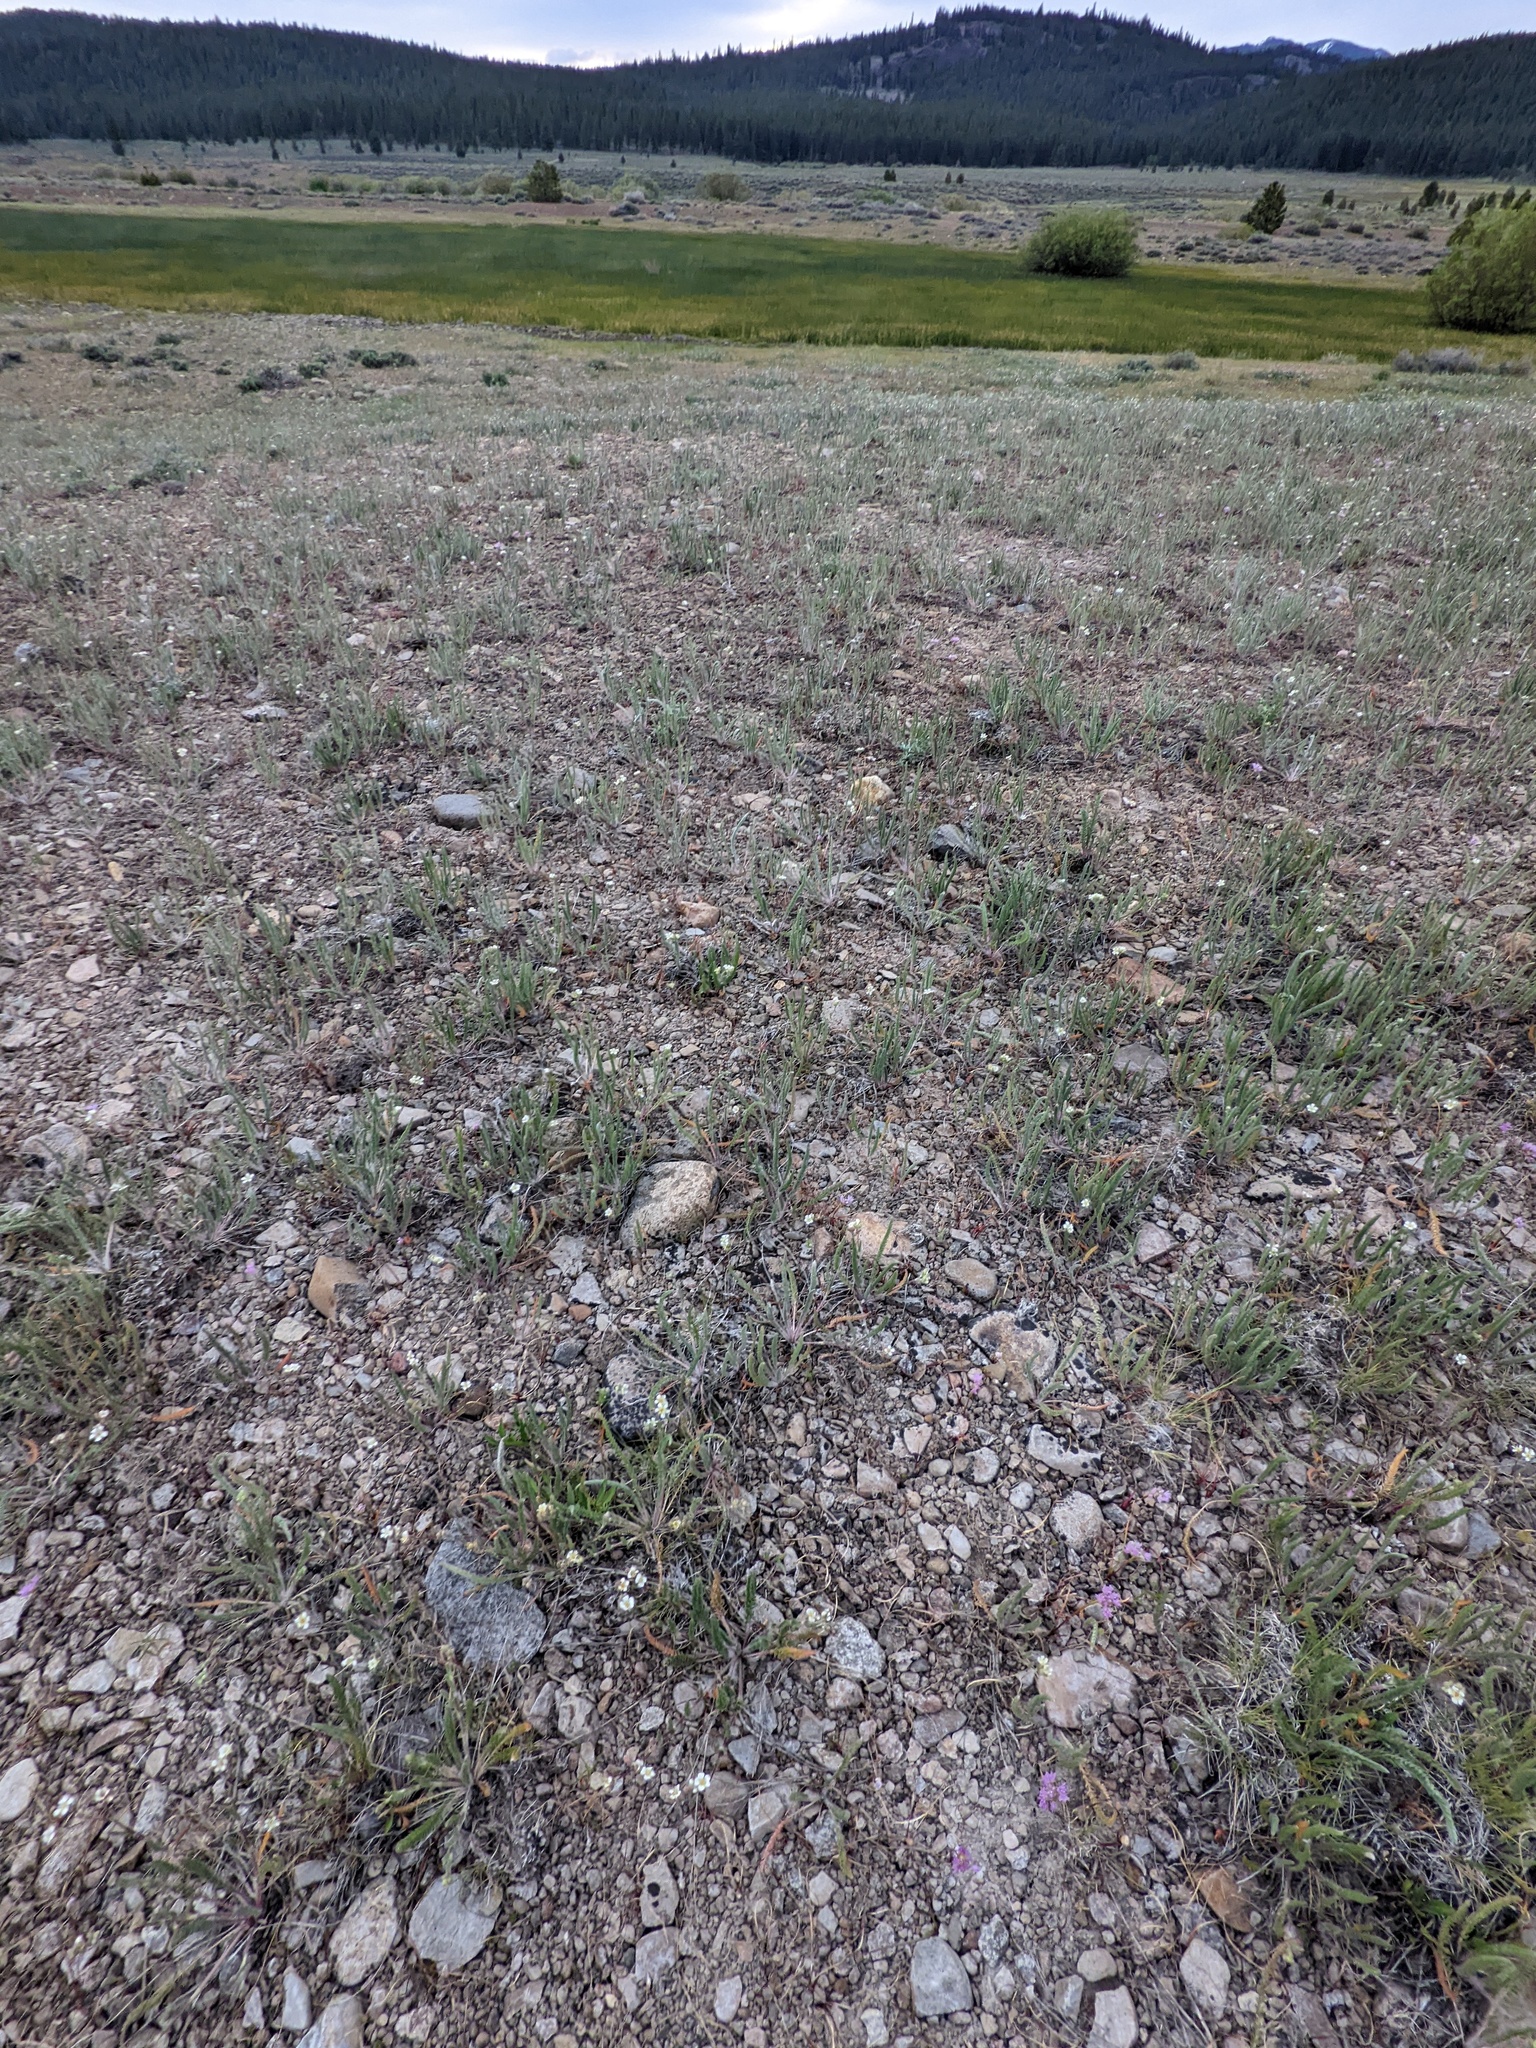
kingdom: Plantae
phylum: Tracheophyta
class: Magnoliopsida
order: Rosales
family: Rosaceae
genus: Potentilla
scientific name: Potentilla sericoleuca
